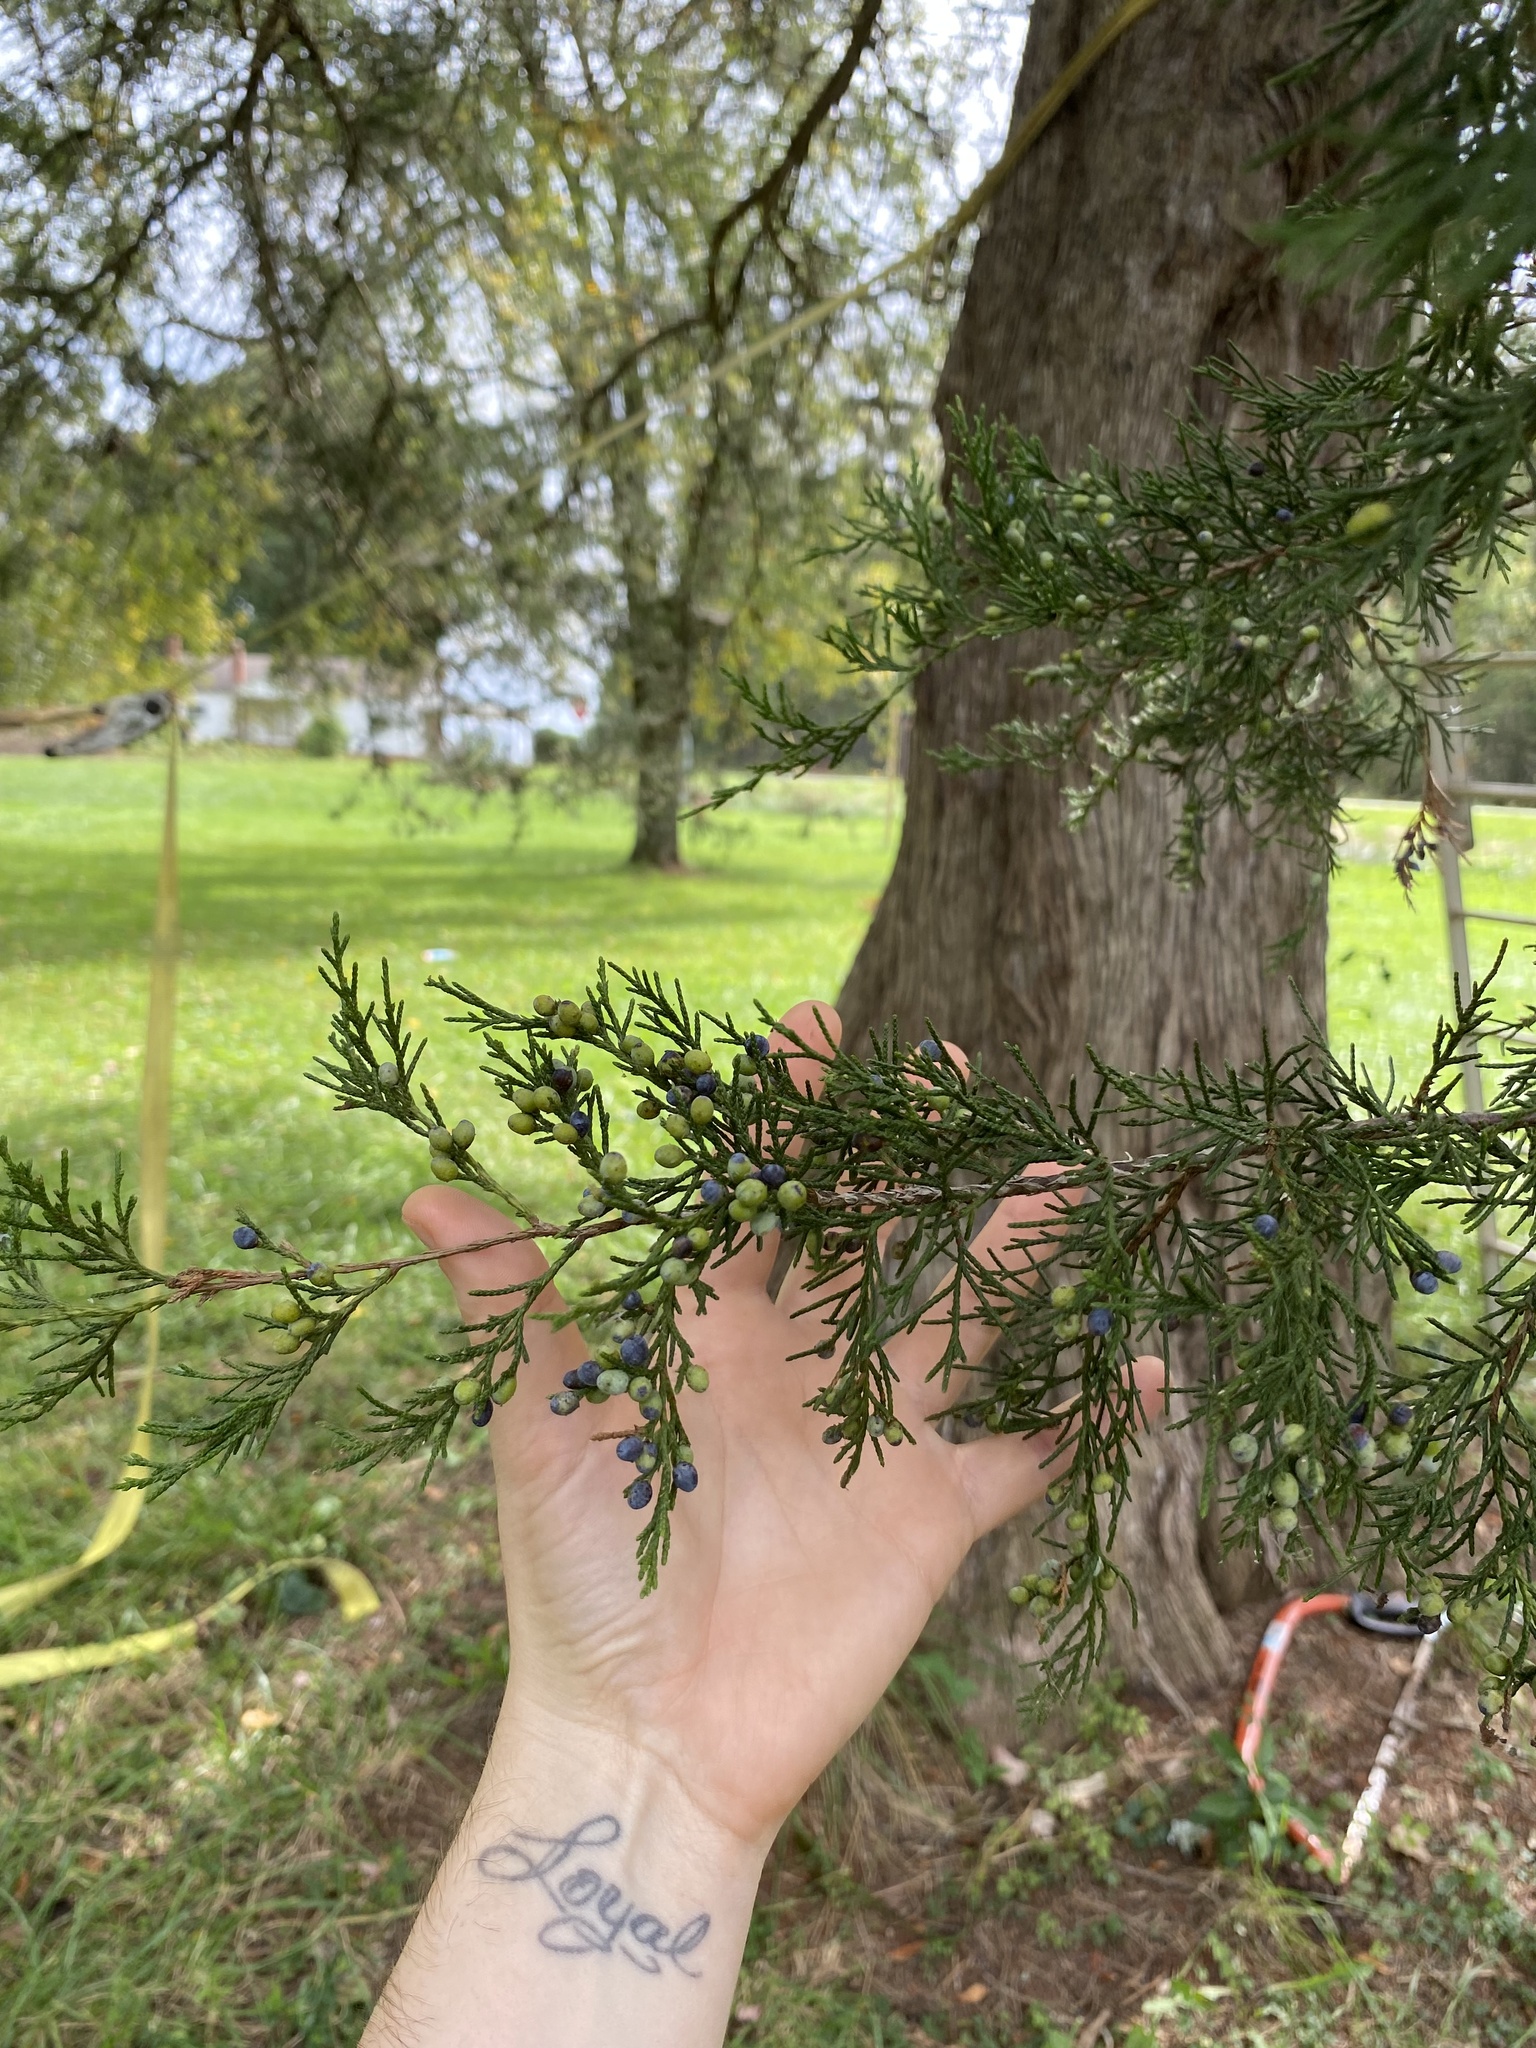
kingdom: Plantae
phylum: Tracheophyta
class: Pinopsida
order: Pinales
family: Cupressaceae
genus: Juniperus
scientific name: Juniperus virginiana
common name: Red juniper
